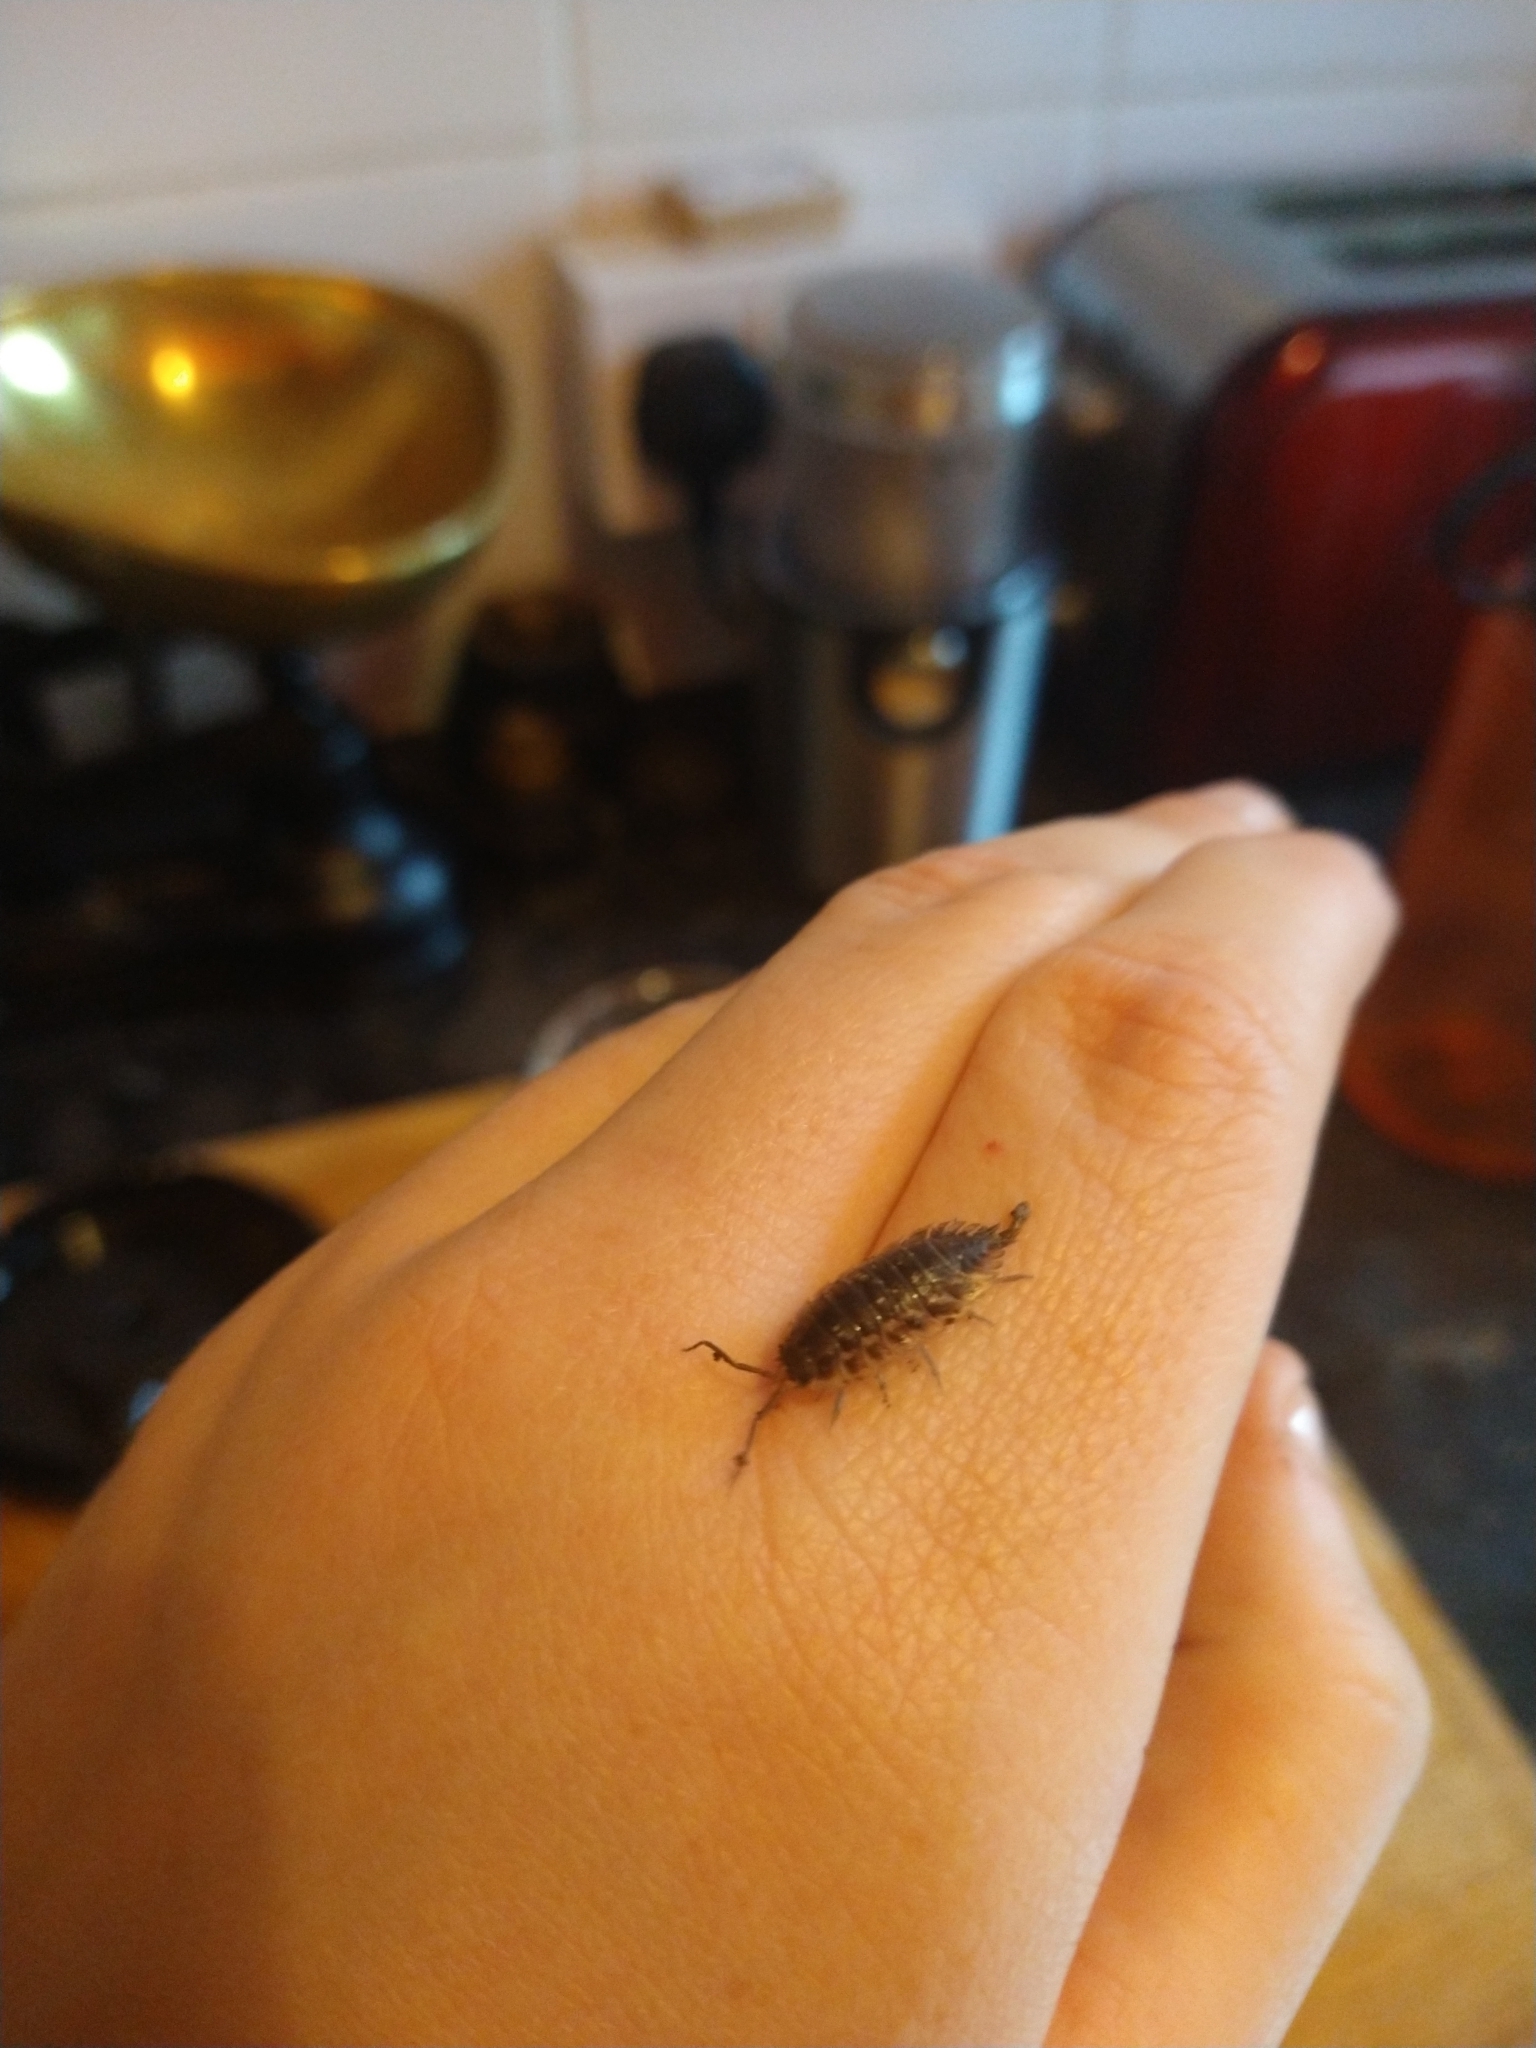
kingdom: Animalia
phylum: Arthropoda
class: Malacostraca
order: Isopoda
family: Oniscidae
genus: Oniscus
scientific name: Oniscus asellus
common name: Common shiny woodlouse
